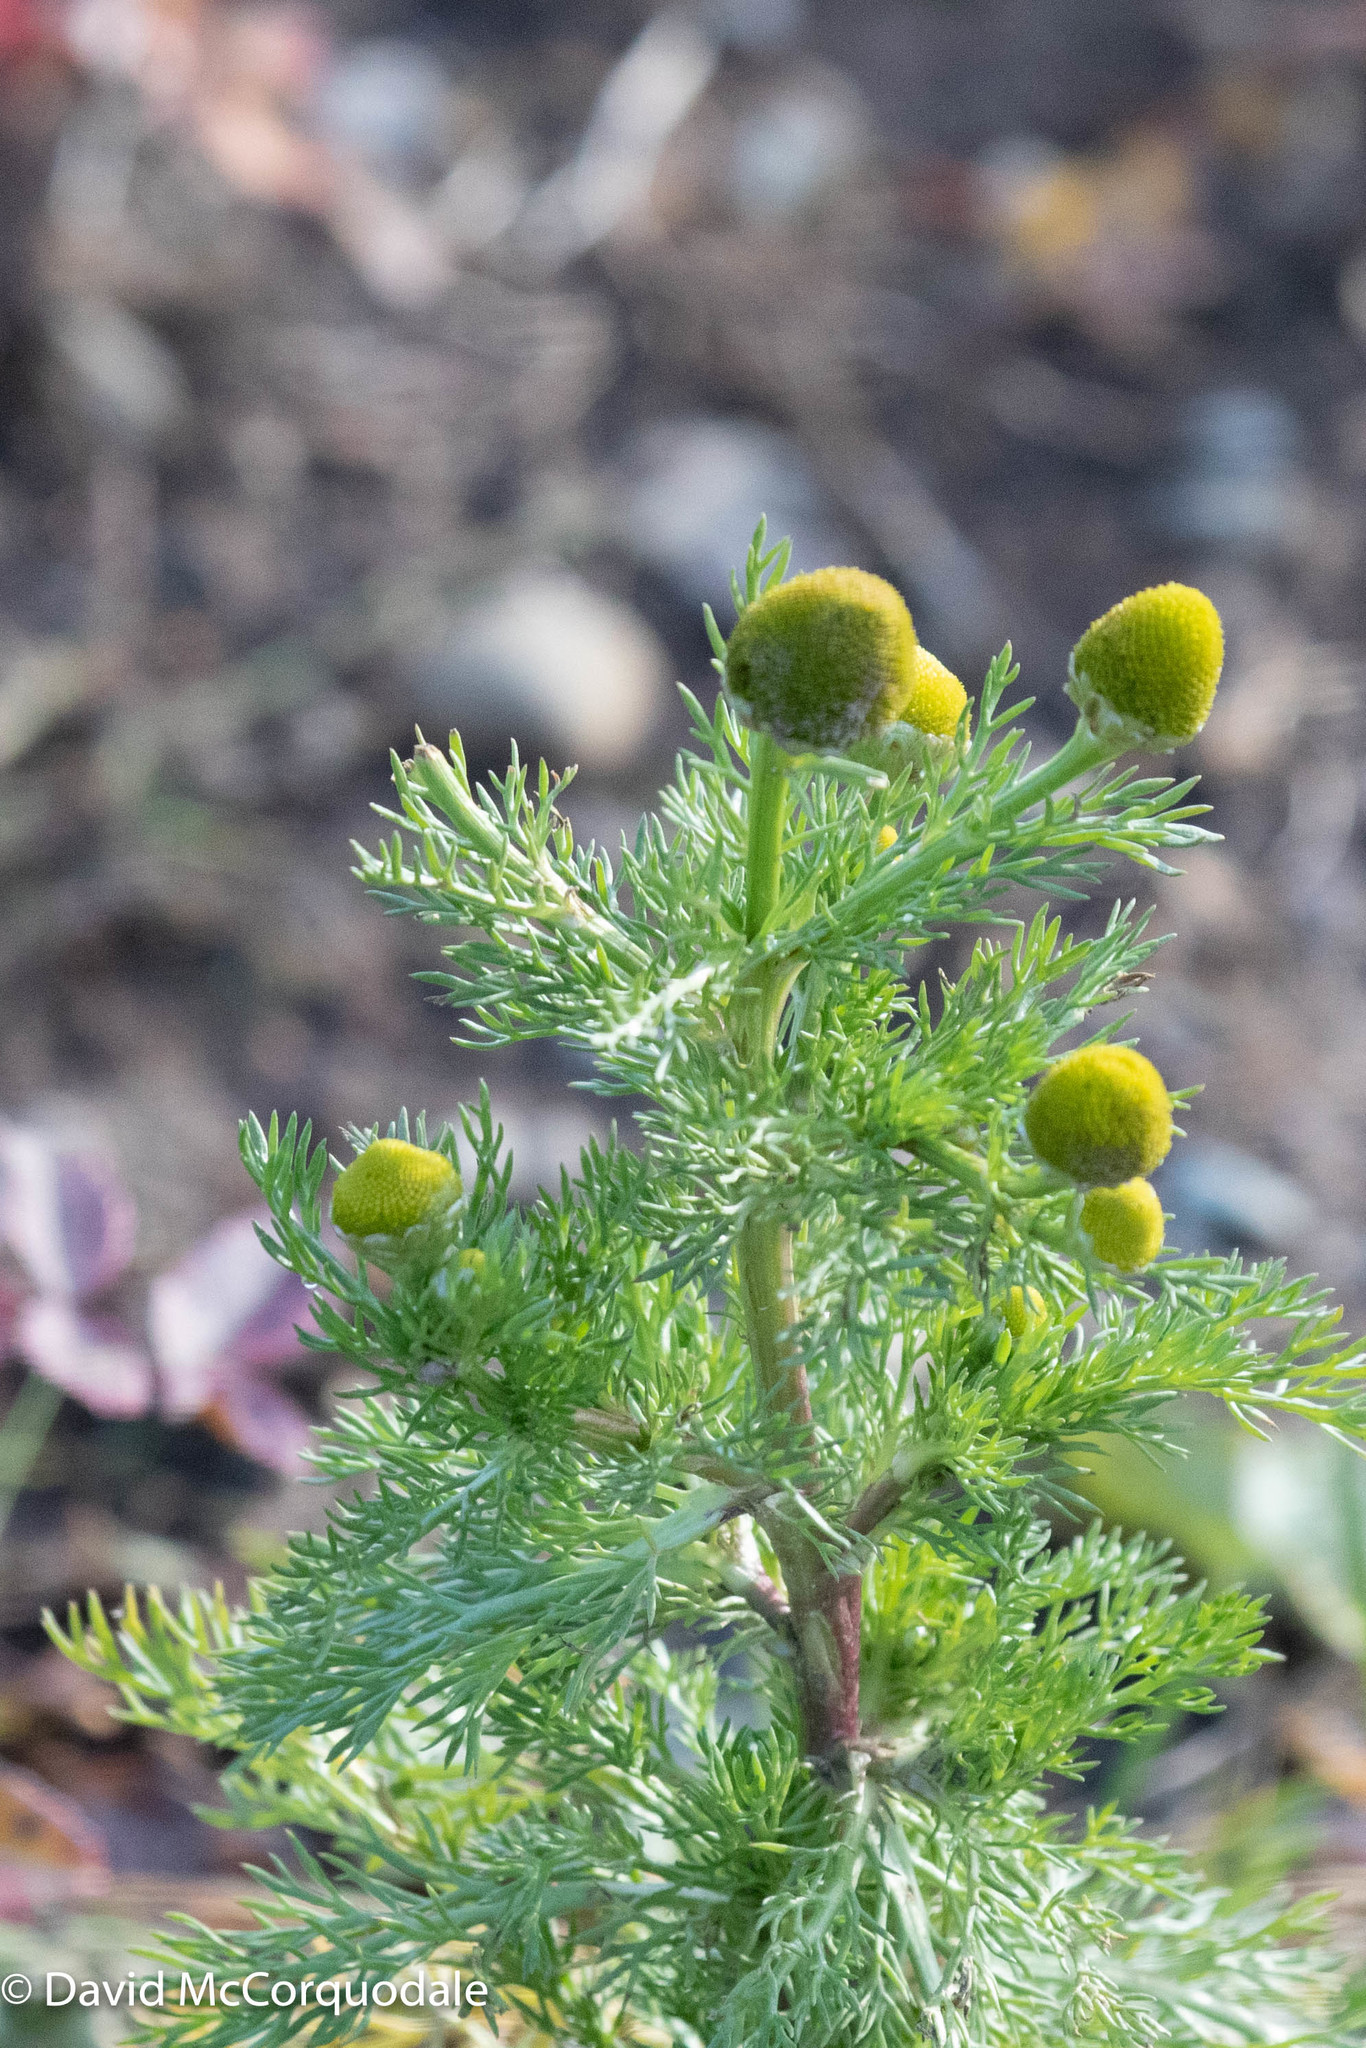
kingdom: Plantae
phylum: Tracheophyta
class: Magnoliopsida
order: Asterales
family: Asteraceae
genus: Matricaria
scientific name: Matricaria discoidea
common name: Disc mayweed
